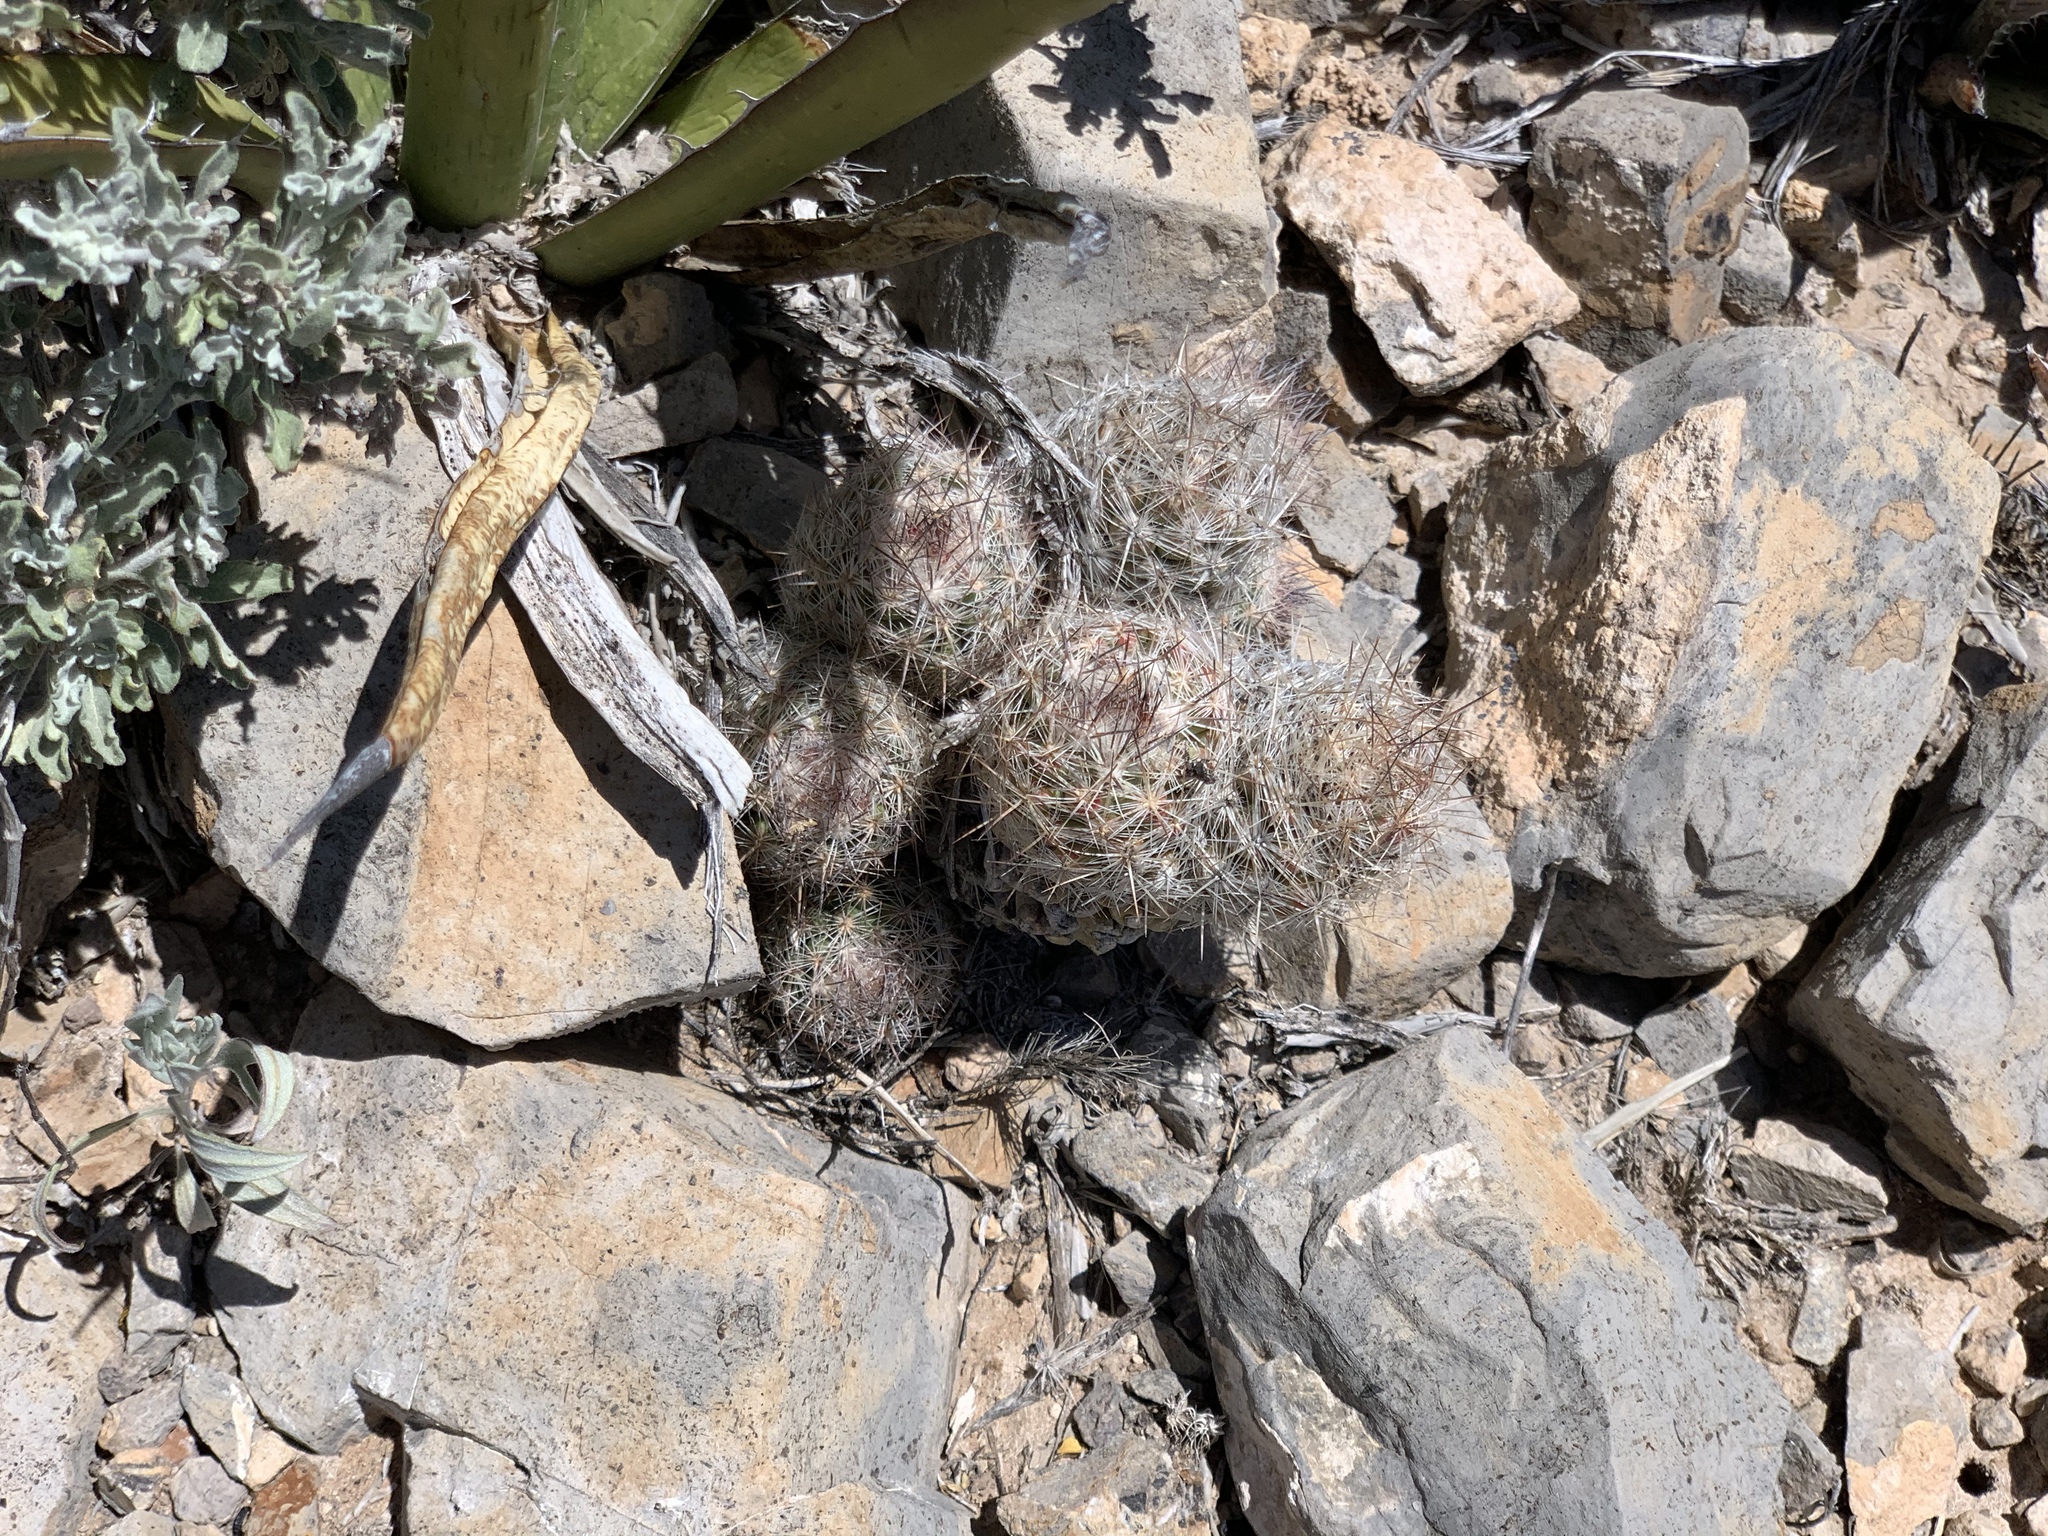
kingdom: Plantae
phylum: Tracheophyta
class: Magnoliopsida
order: Caryophyllales
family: Cactaceae
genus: Pelecyphora
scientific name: Pelecyphora tuberculosa
